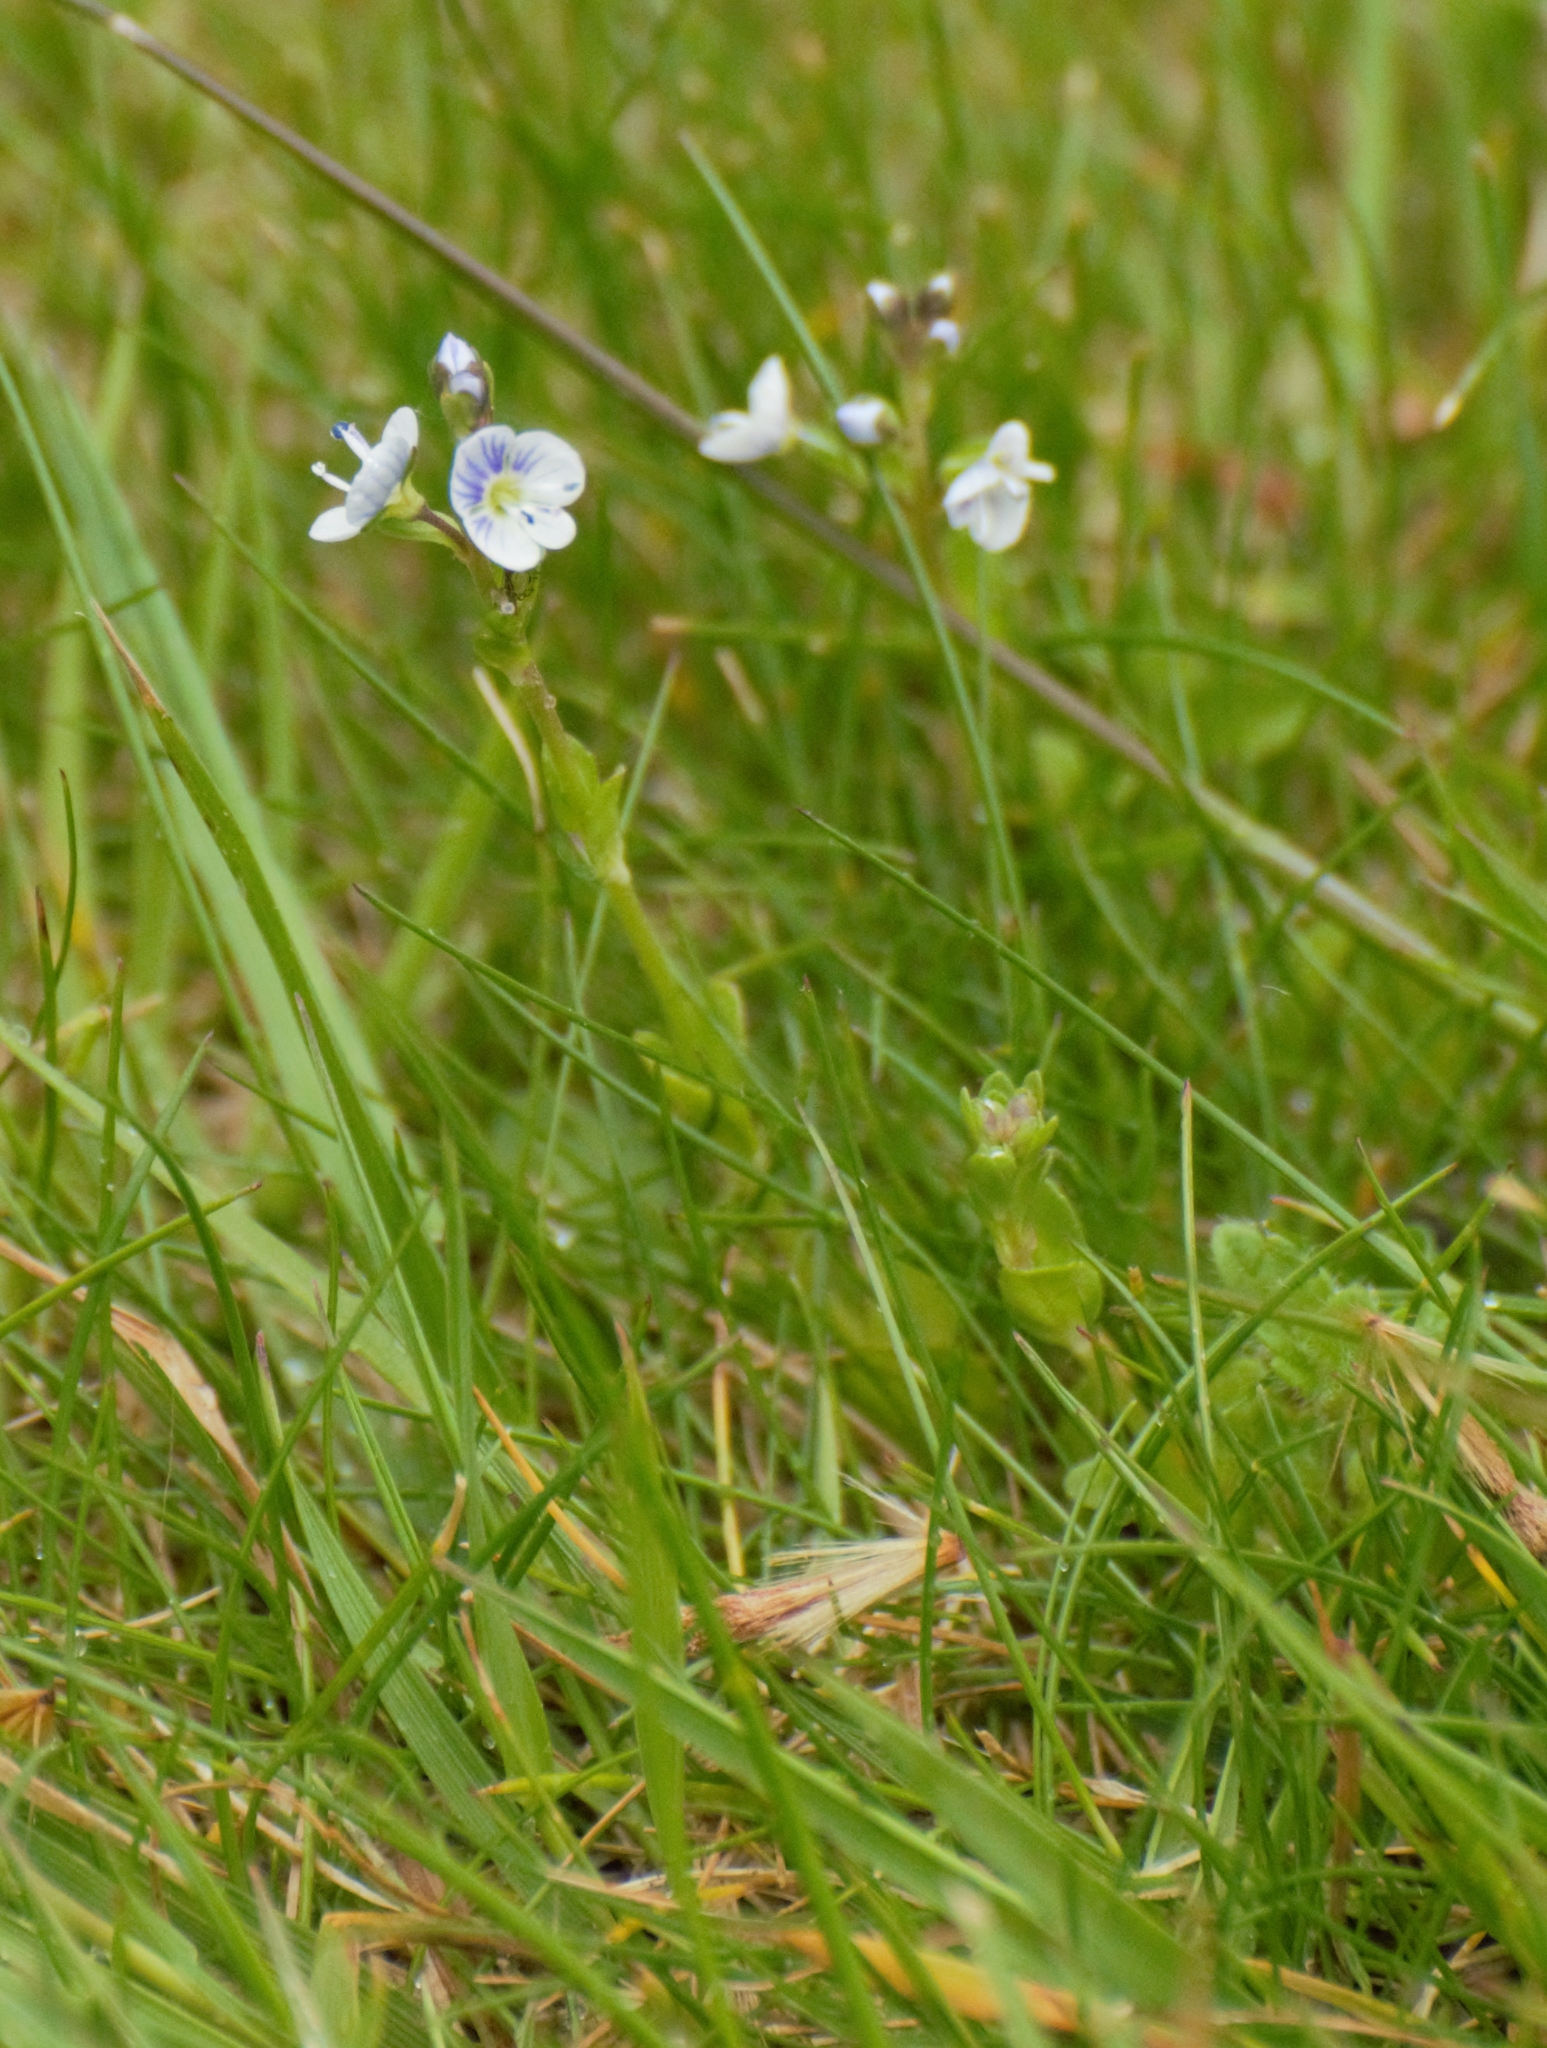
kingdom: Plantae
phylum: Tracheophyta
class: Magnoliopsida
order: Lamiales
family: Plantaginaceae
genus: Veronica
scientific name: Veronica serpyllifolia
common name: Thyme-leaved speedwell
